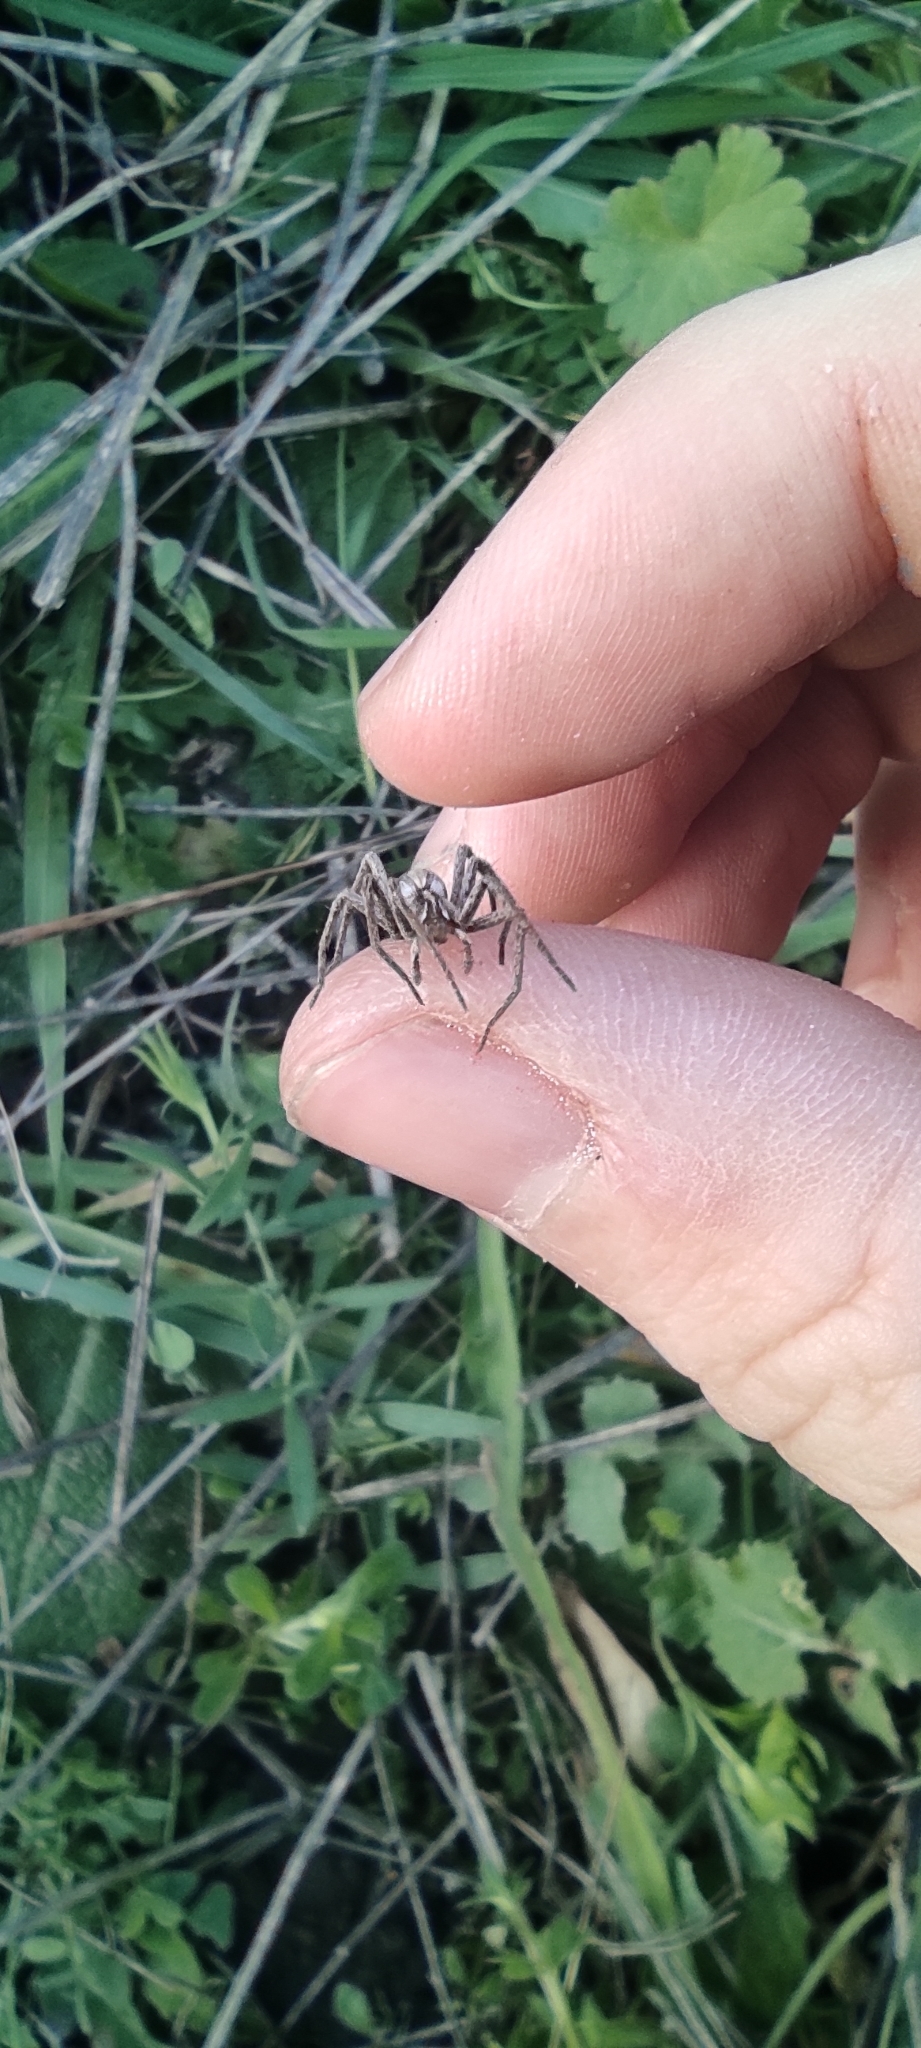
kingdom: Animalia
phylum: Arthropoda
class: Arachnida
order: Araneae
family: Pisauridae
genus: Pisaura
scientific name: Pisaura
